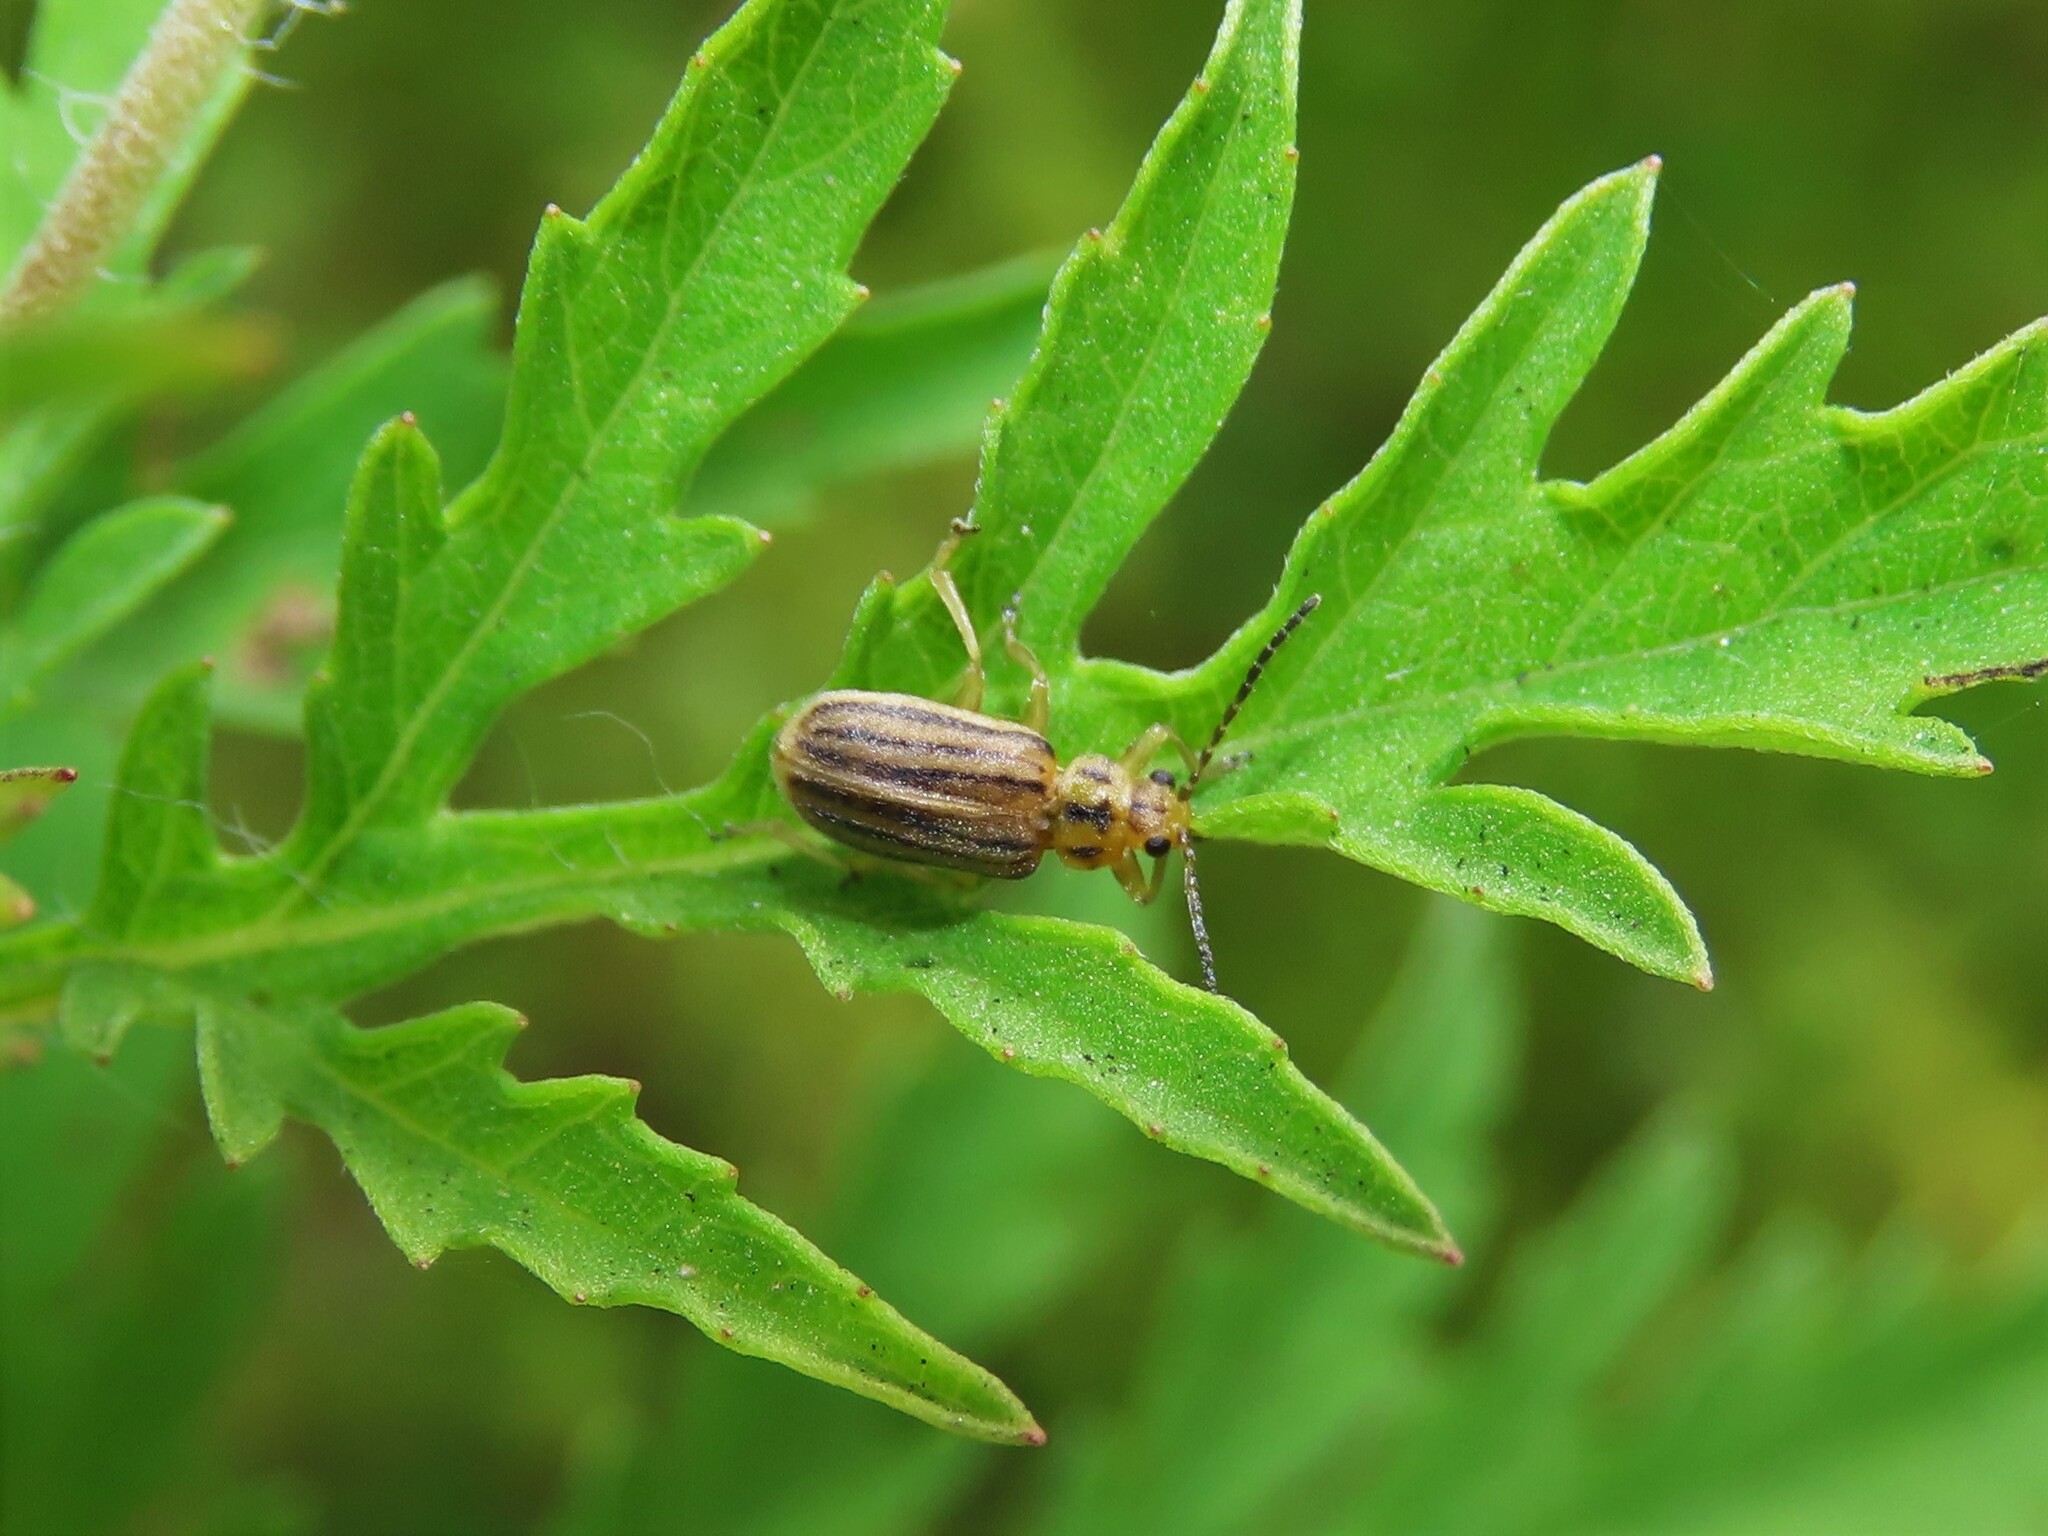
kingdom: Animalia
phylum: Arthropoda
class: Insecta
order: Coleoptera
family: Chrysomelidae
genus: Neolochmaea
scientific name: Neolochmaea dilatipennis
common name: Skeletonizing leaf beetle
